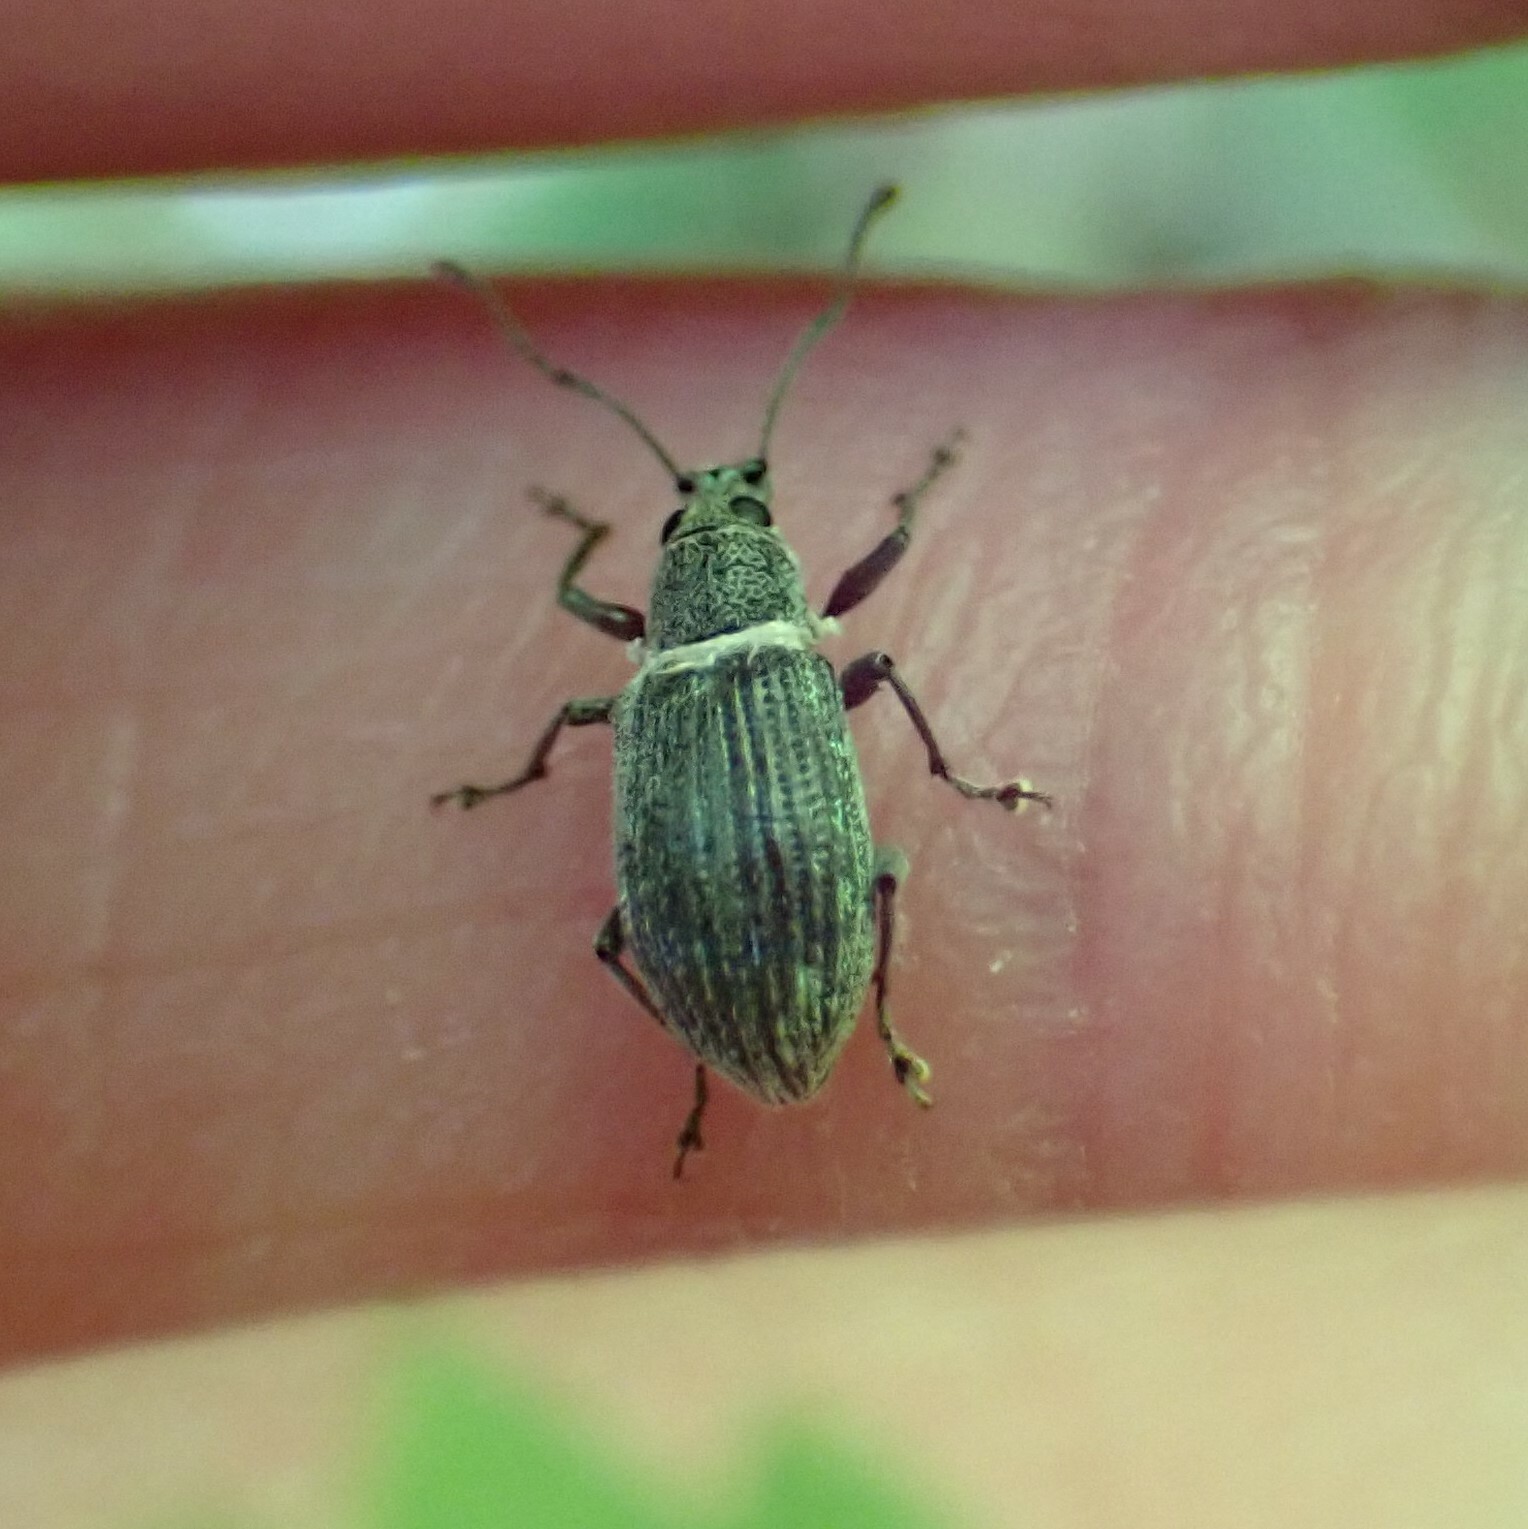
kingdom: Animalia
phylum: Arthropoda
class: Insecta
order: Coleoptera
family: Curculionidae
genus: Cyrtepistomus
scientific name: Cyrtepistomus castaneus
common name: Weevil
